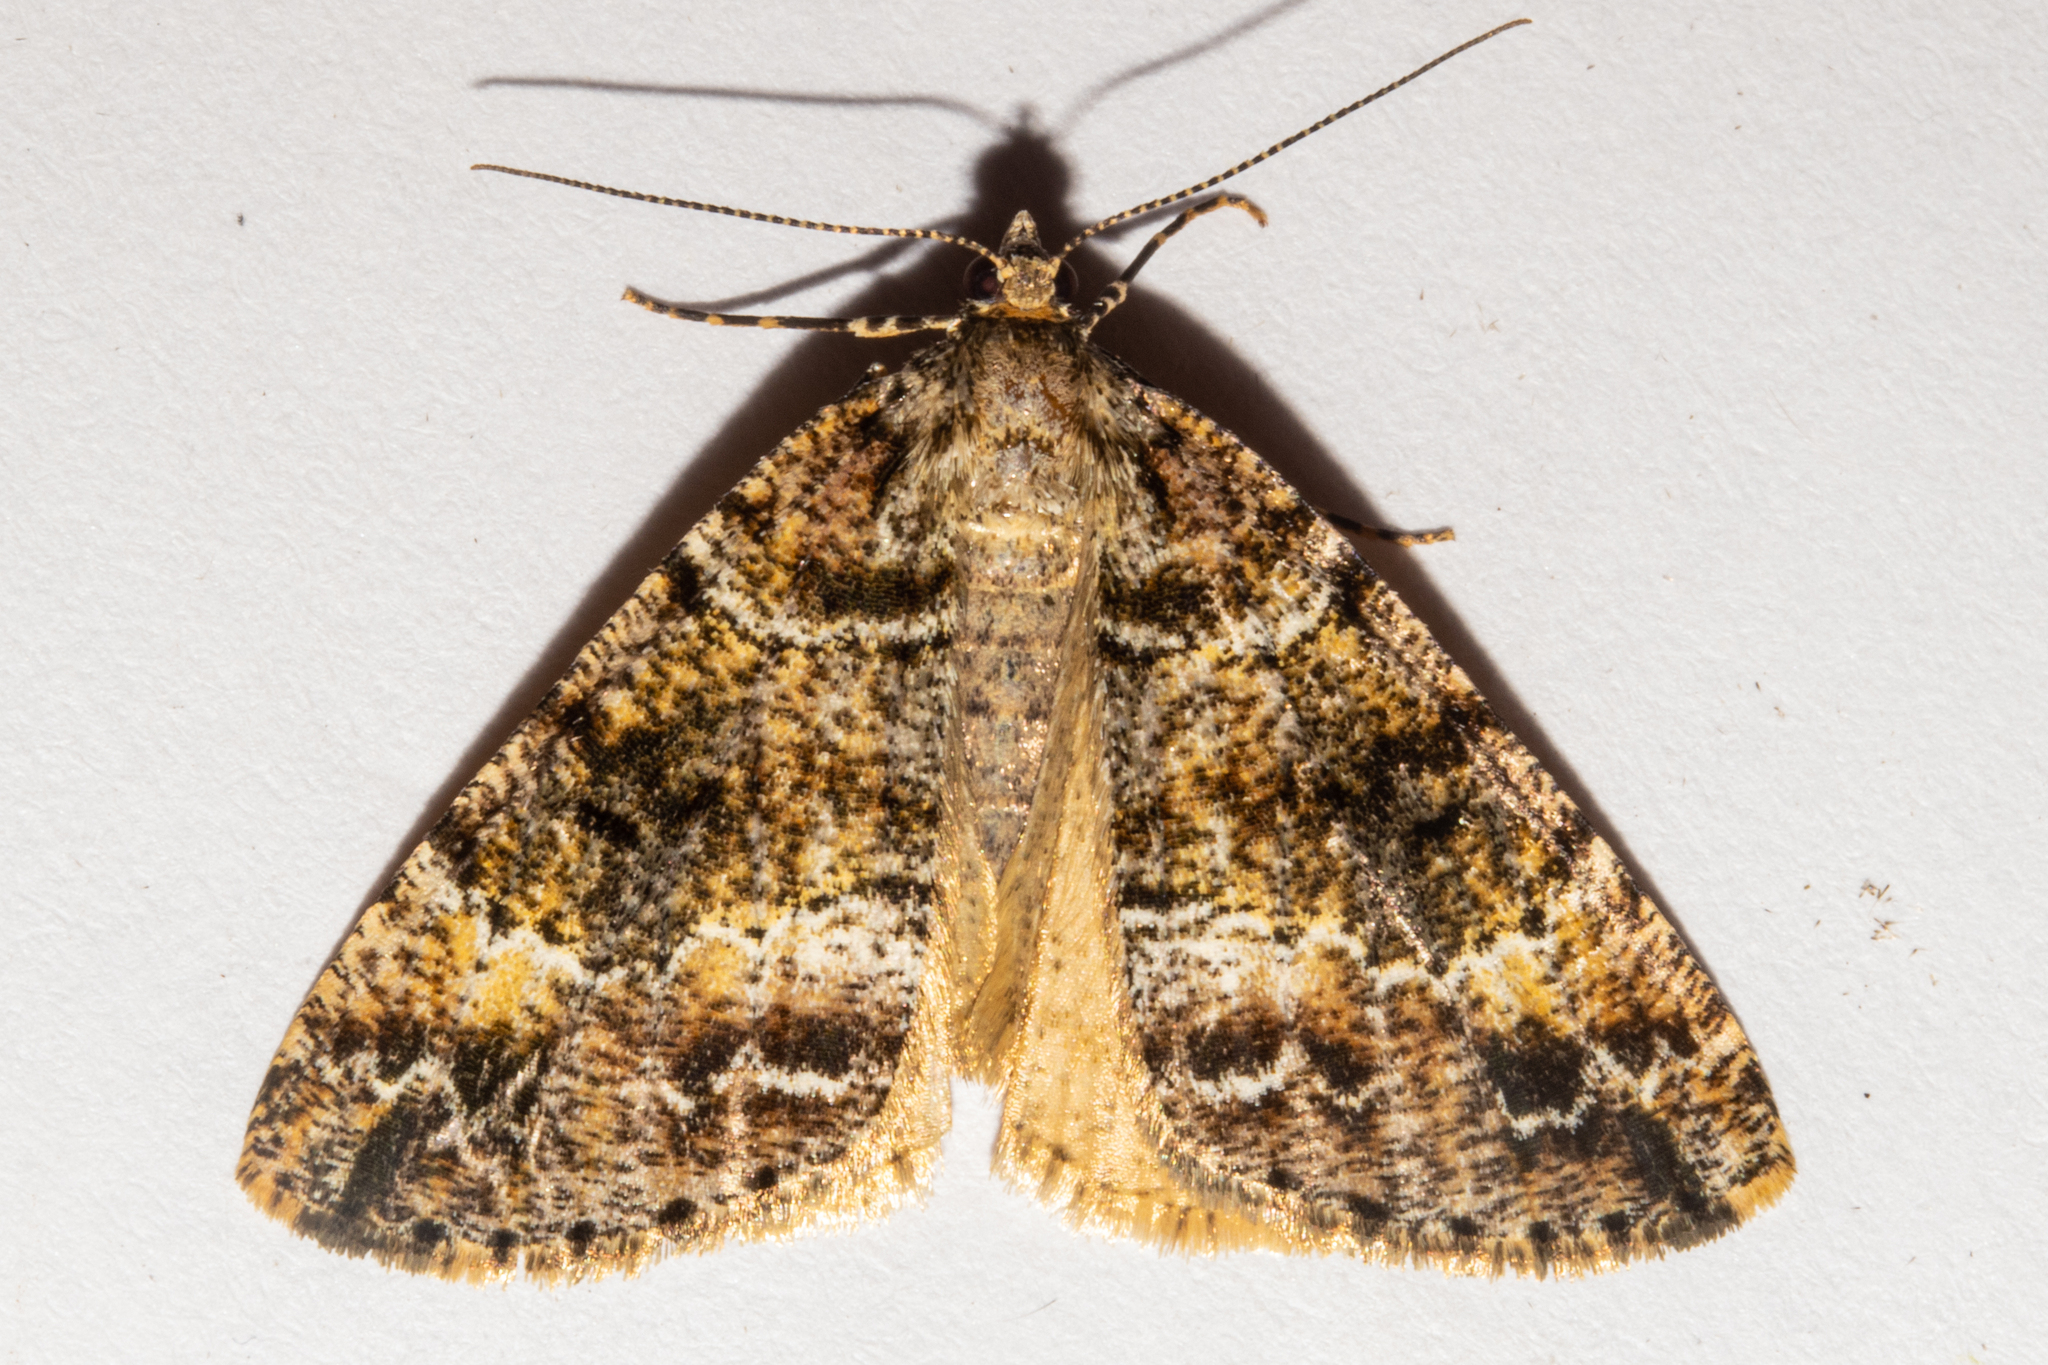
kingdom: Animalia
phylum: Arthropoda
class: Insecta
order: Lepidoptera
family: Geometridae
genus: Pseudocoremia
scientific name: Pseudocoremia productata
